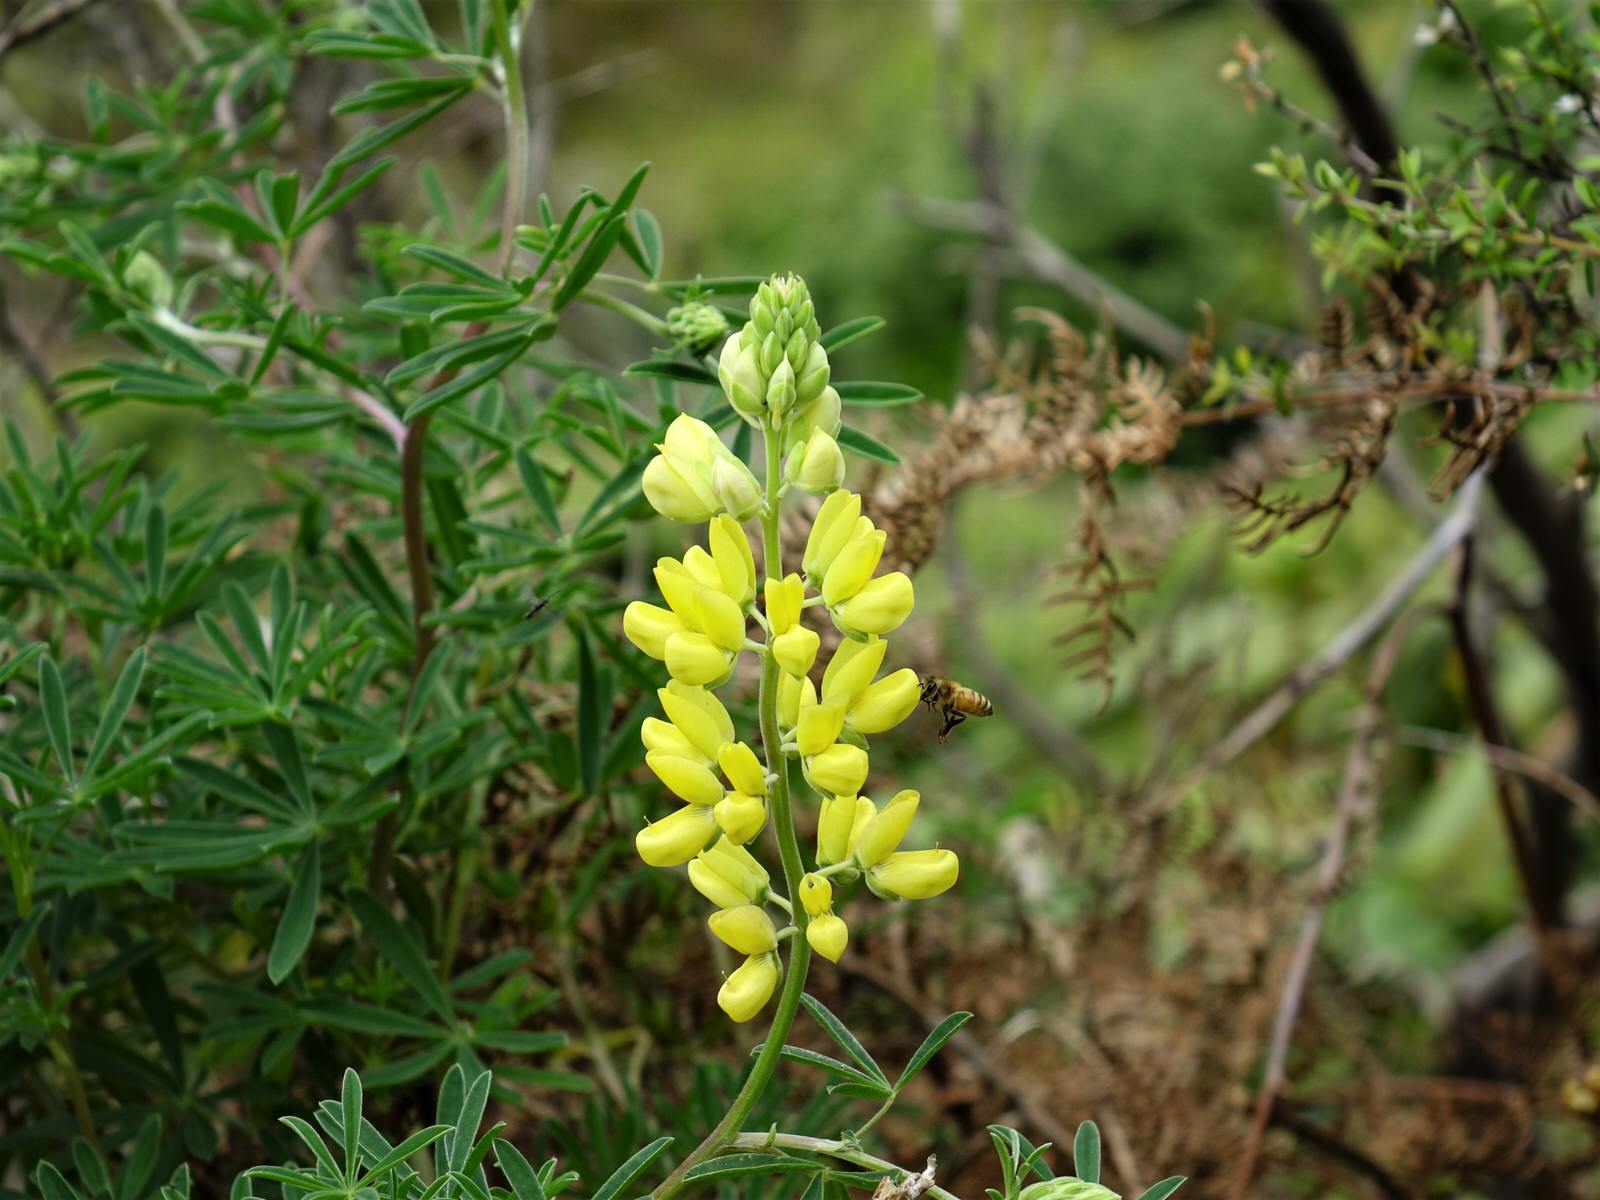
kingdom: Plantae
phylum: Tracheophyta
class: Magnoliopsida
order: Fabales
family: Fabaceae
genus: Lupinus
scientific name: Lupinus arboreus
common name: Yellow bush lupine
